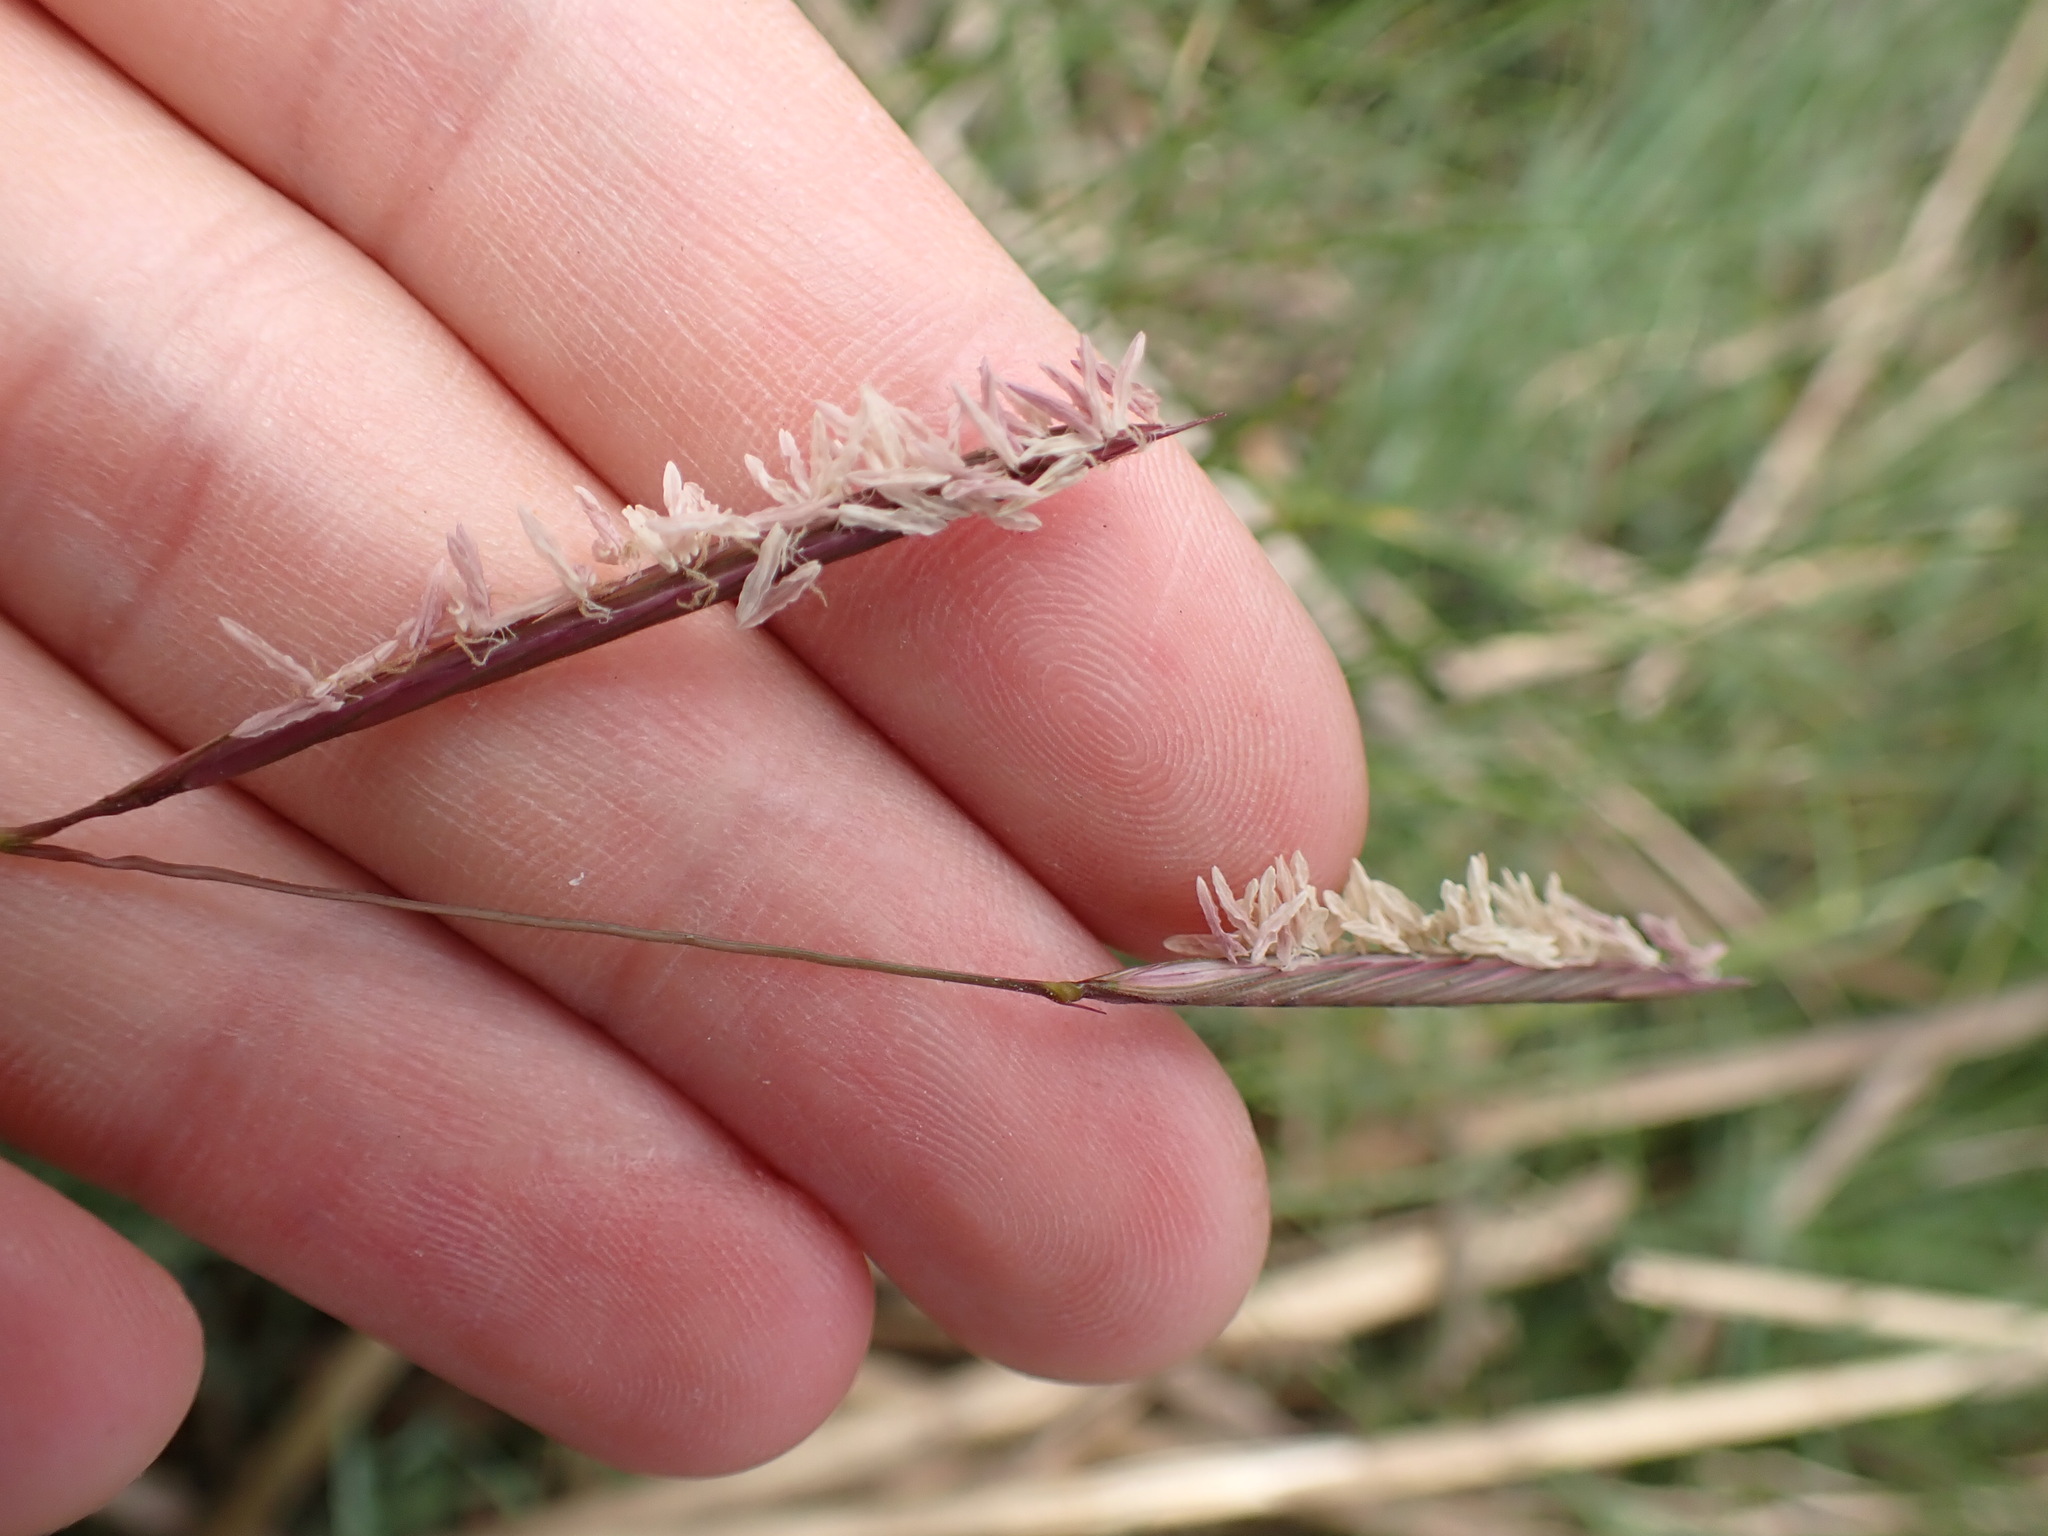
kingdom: Plantae
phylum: Tracheophyta
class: Liliopsida
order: Poales
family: Poaceae
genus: Sporobolus
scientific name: Sporobolus pumilus
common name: Highwater grass
